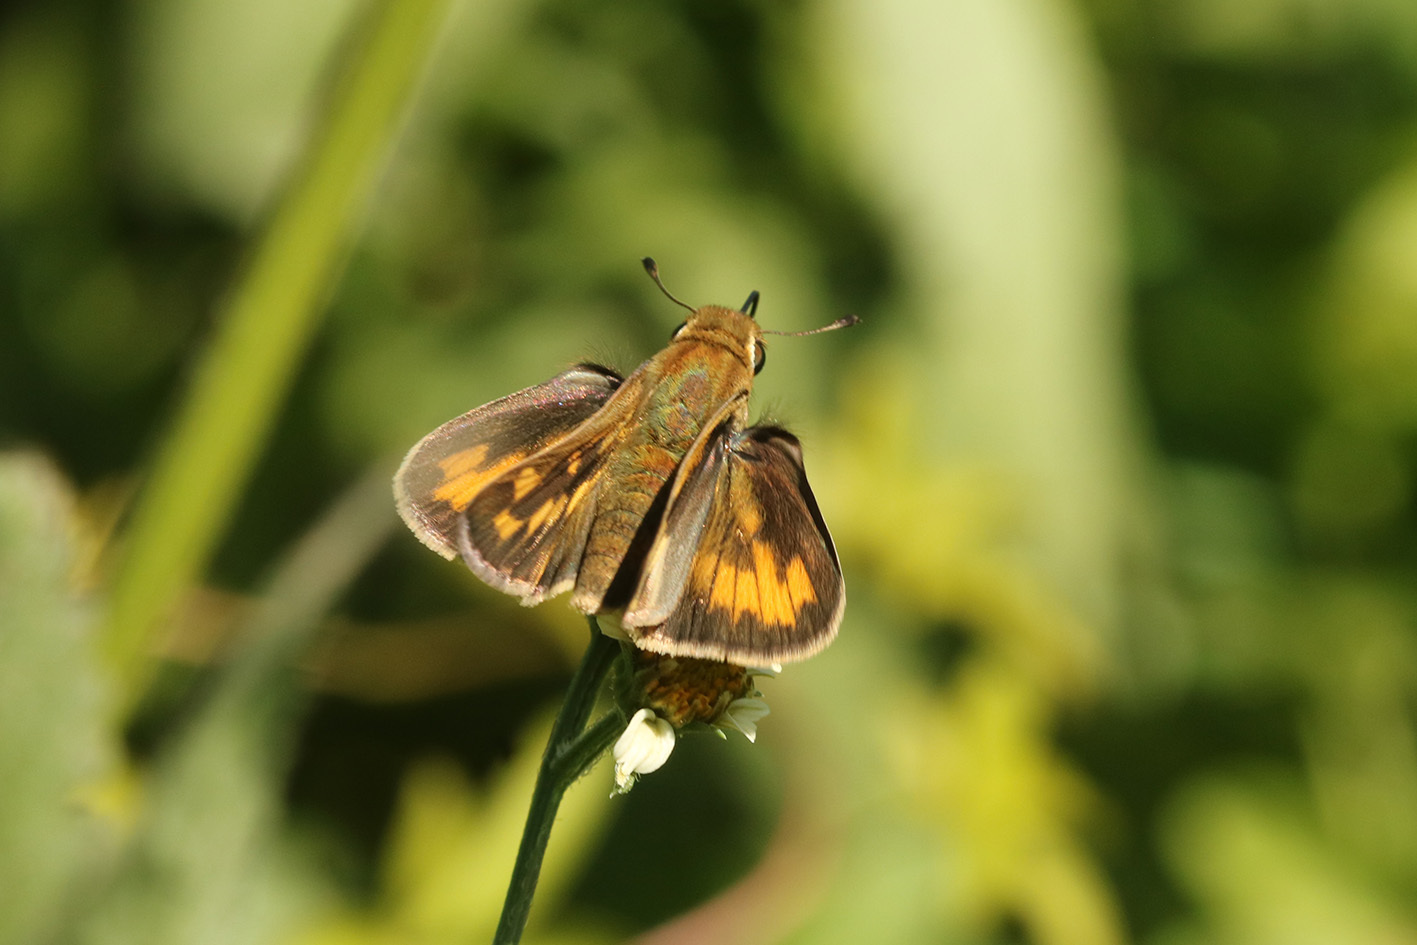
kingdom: Animalia
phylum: Arthropoda
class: Insecta
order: Lepidoptera
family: Hesperiidae
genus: Hylephila
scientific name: Hylephila phyleus
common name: Fiery skipper
